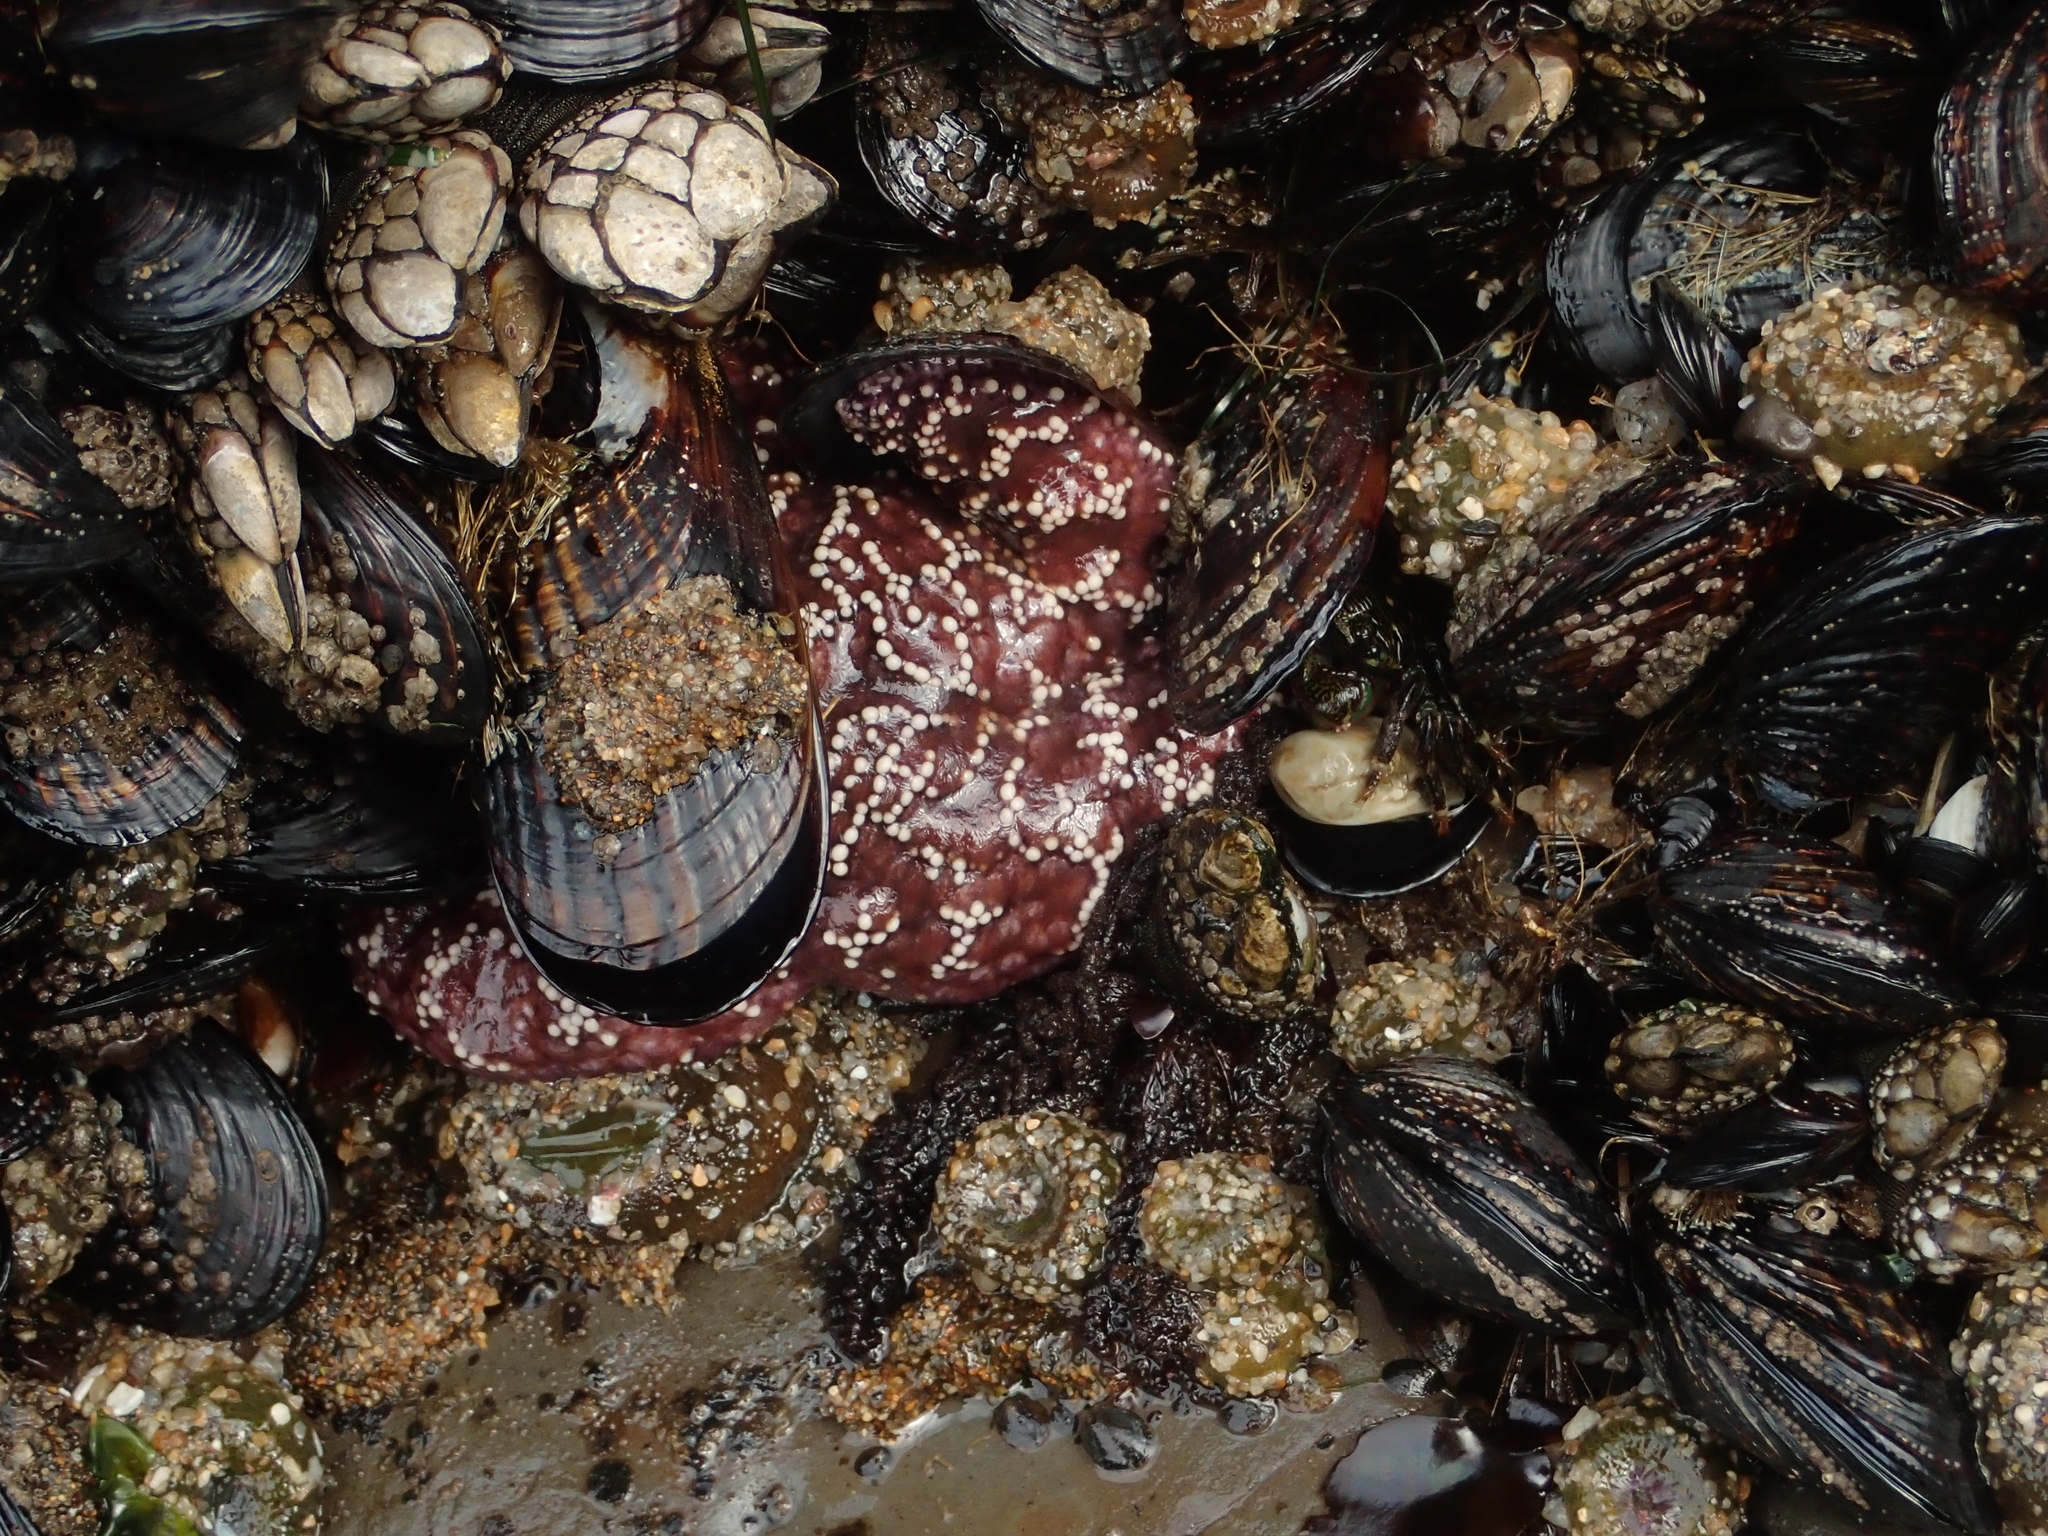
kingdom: Animalia
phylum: Echinodermata
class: Asteroidea
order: Forcipulatida
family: Asteriidae
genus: Pisaster
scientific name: Pisaster ochraceus
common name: Ochre stars
